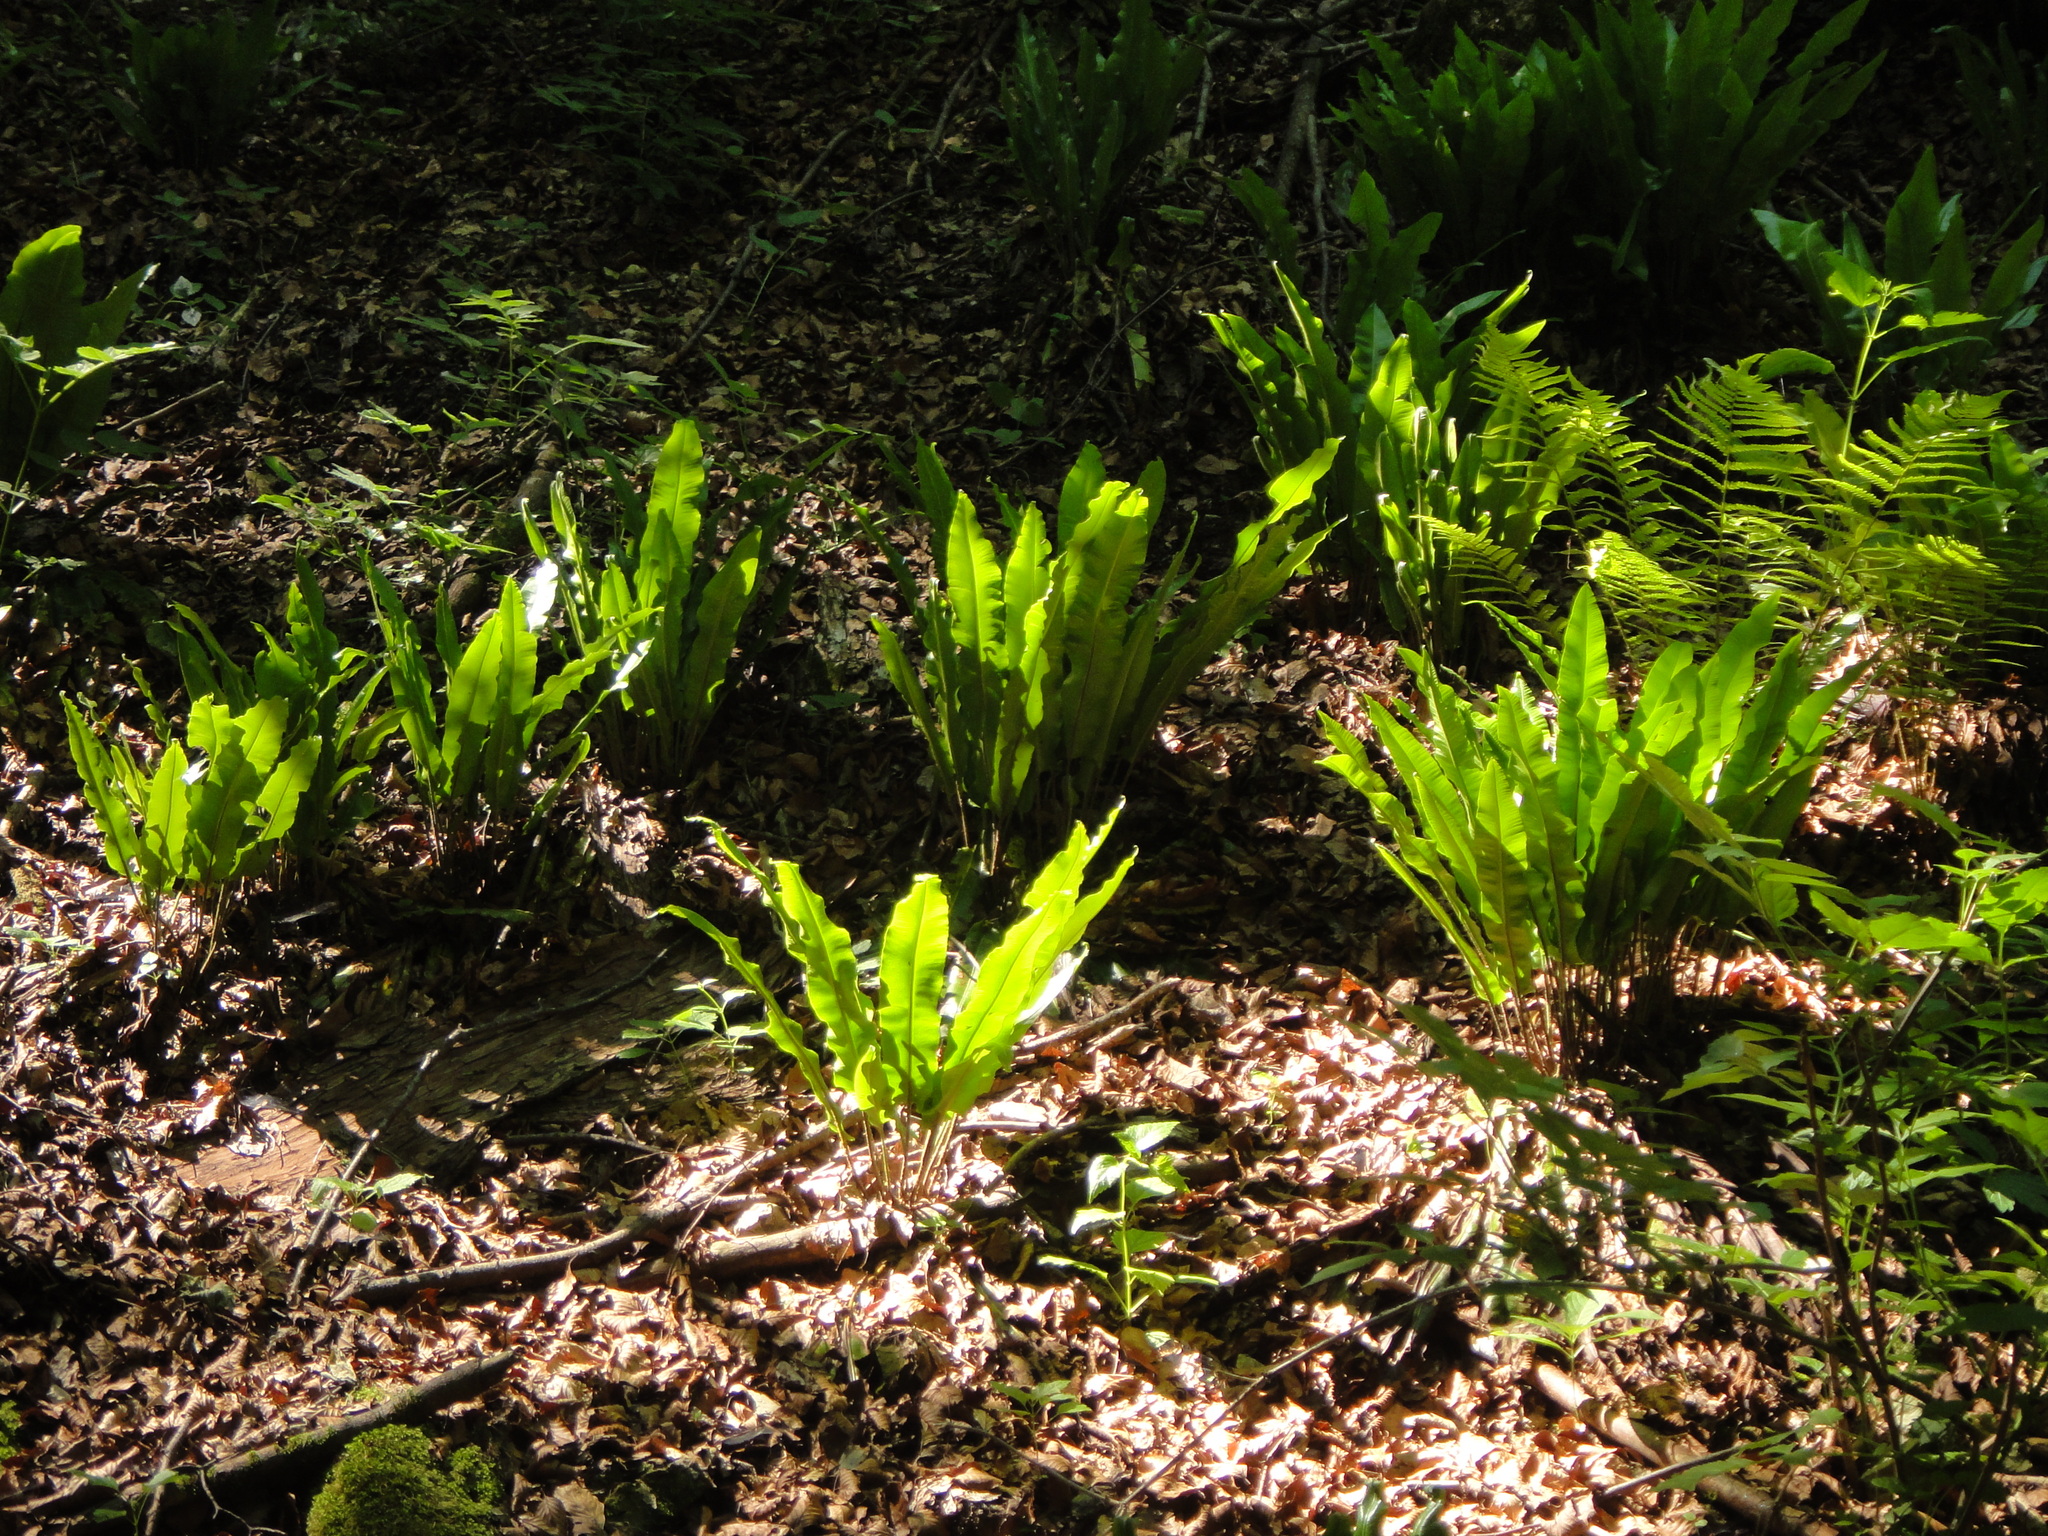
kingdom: Plantae
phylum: Tracheophyta
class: Polypodiopsida
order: Polypodiales
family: Aspleniaceae
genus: Asplenium
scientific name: Asplenium scolopendrium
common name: Hart's-tongue fern
